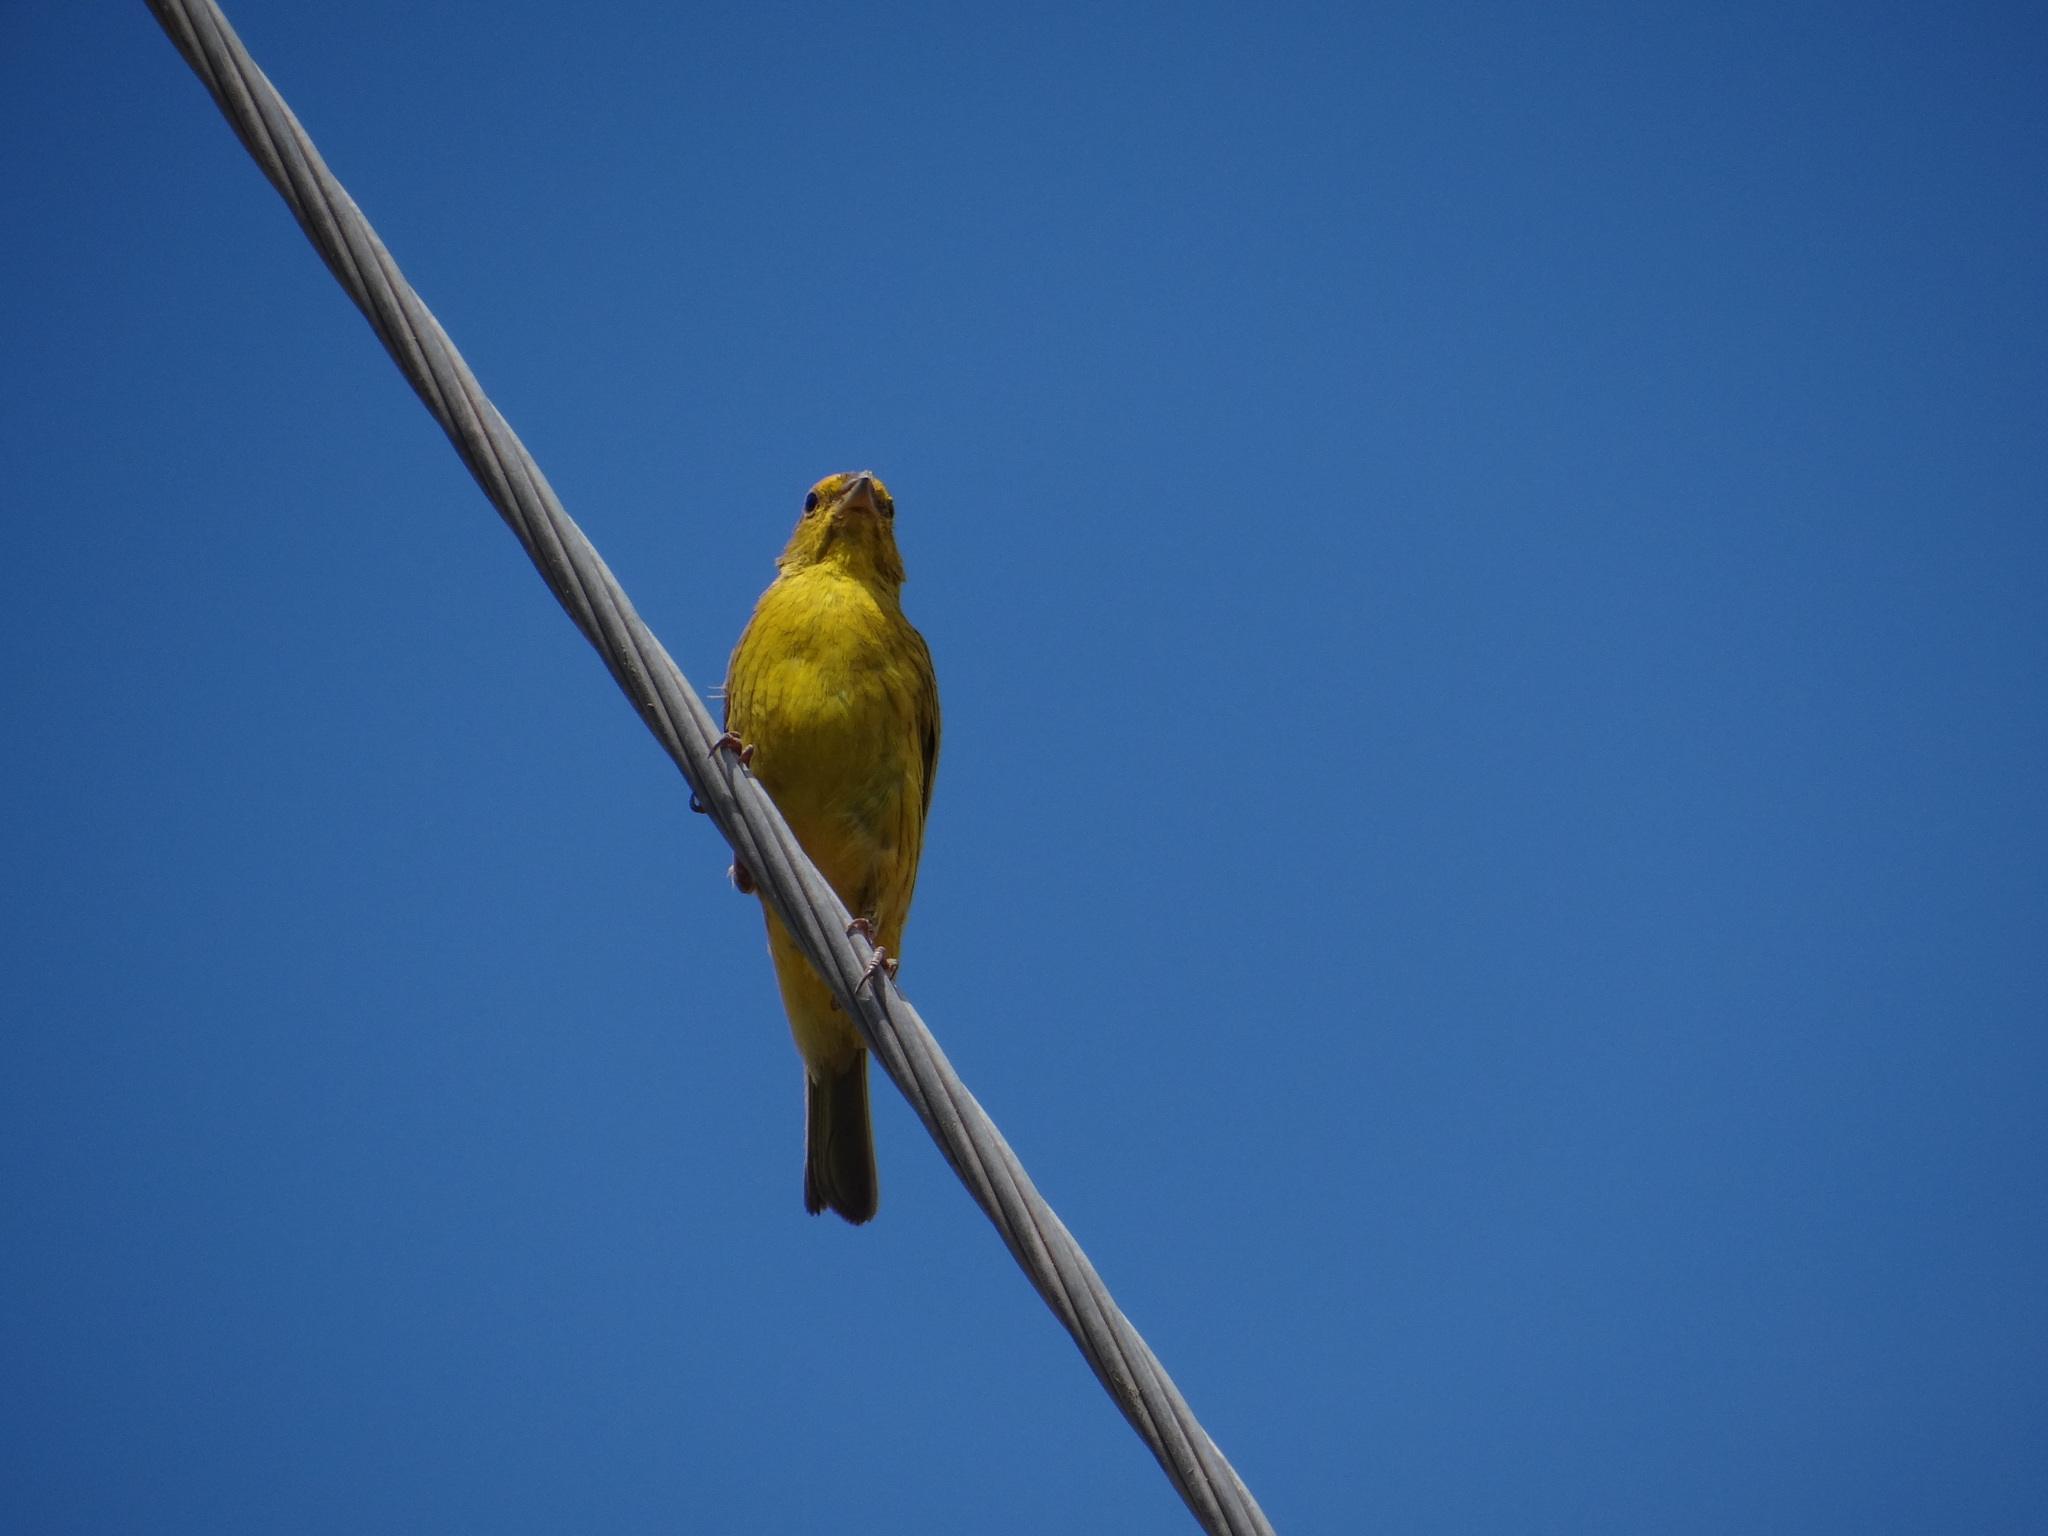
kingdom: Animalia
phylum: Chordata
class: Aves
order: Passeriformes
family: Thraupidae
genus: Sicalis
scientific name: Sicalis flaveola
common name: Saffron finch
